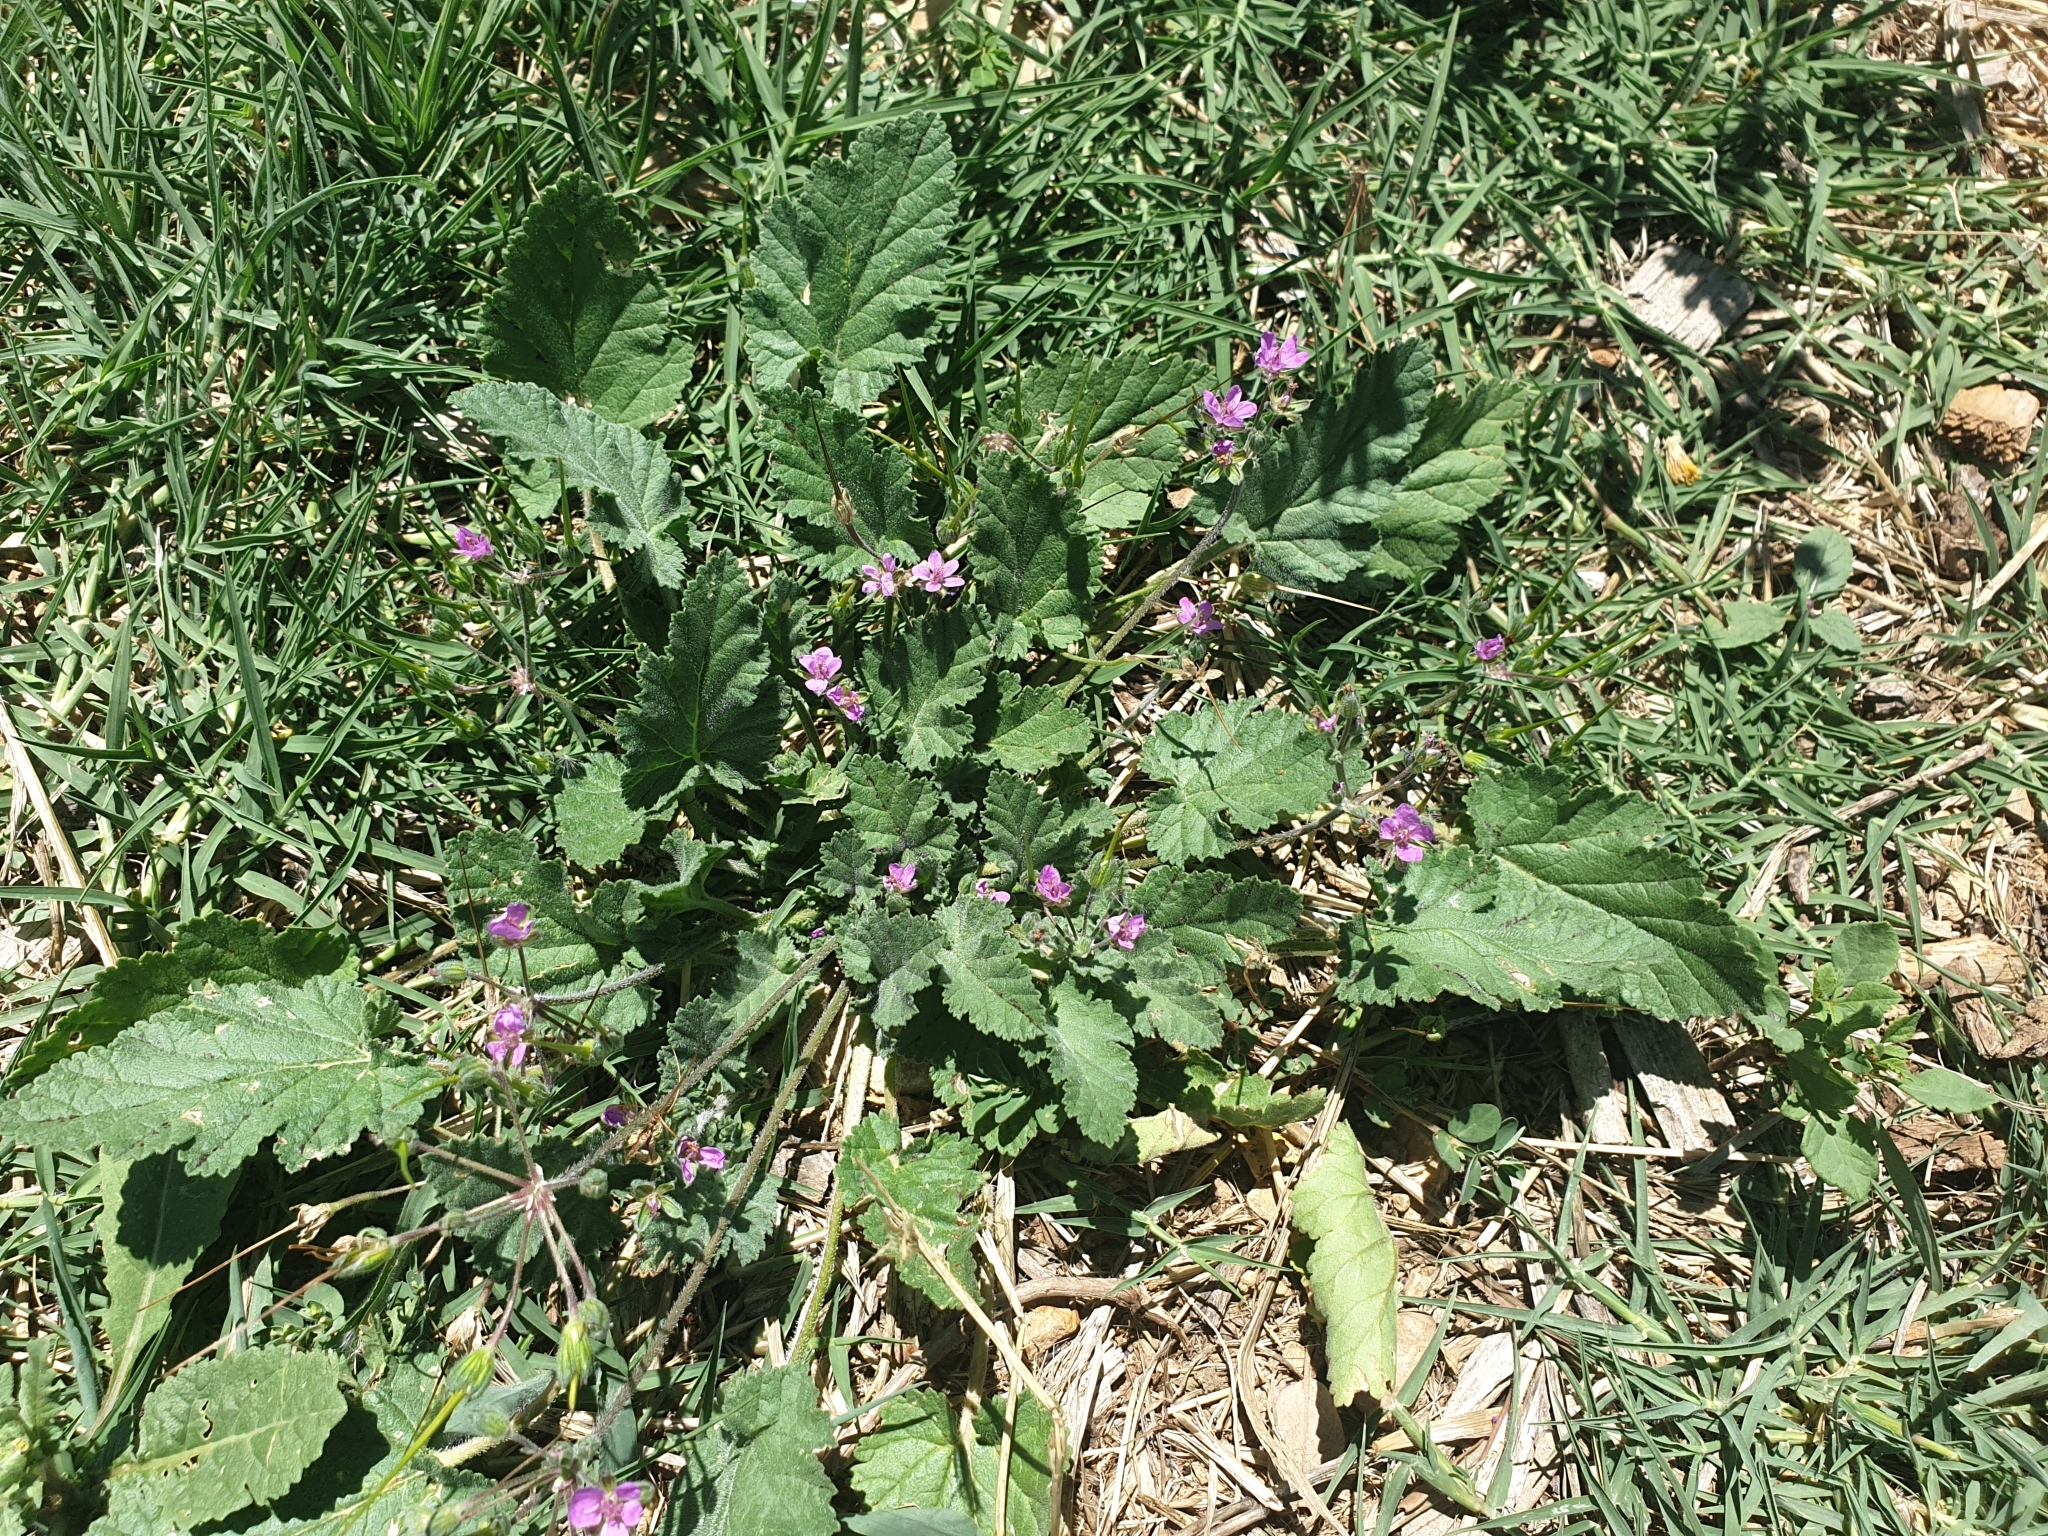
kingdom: Plantae
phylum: Tracheophyta
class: Magnoliopsida
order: Geraniales
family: Geraniaceae
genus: Erodium
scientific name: Erodium malacoides
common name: Soft stork's-bill
